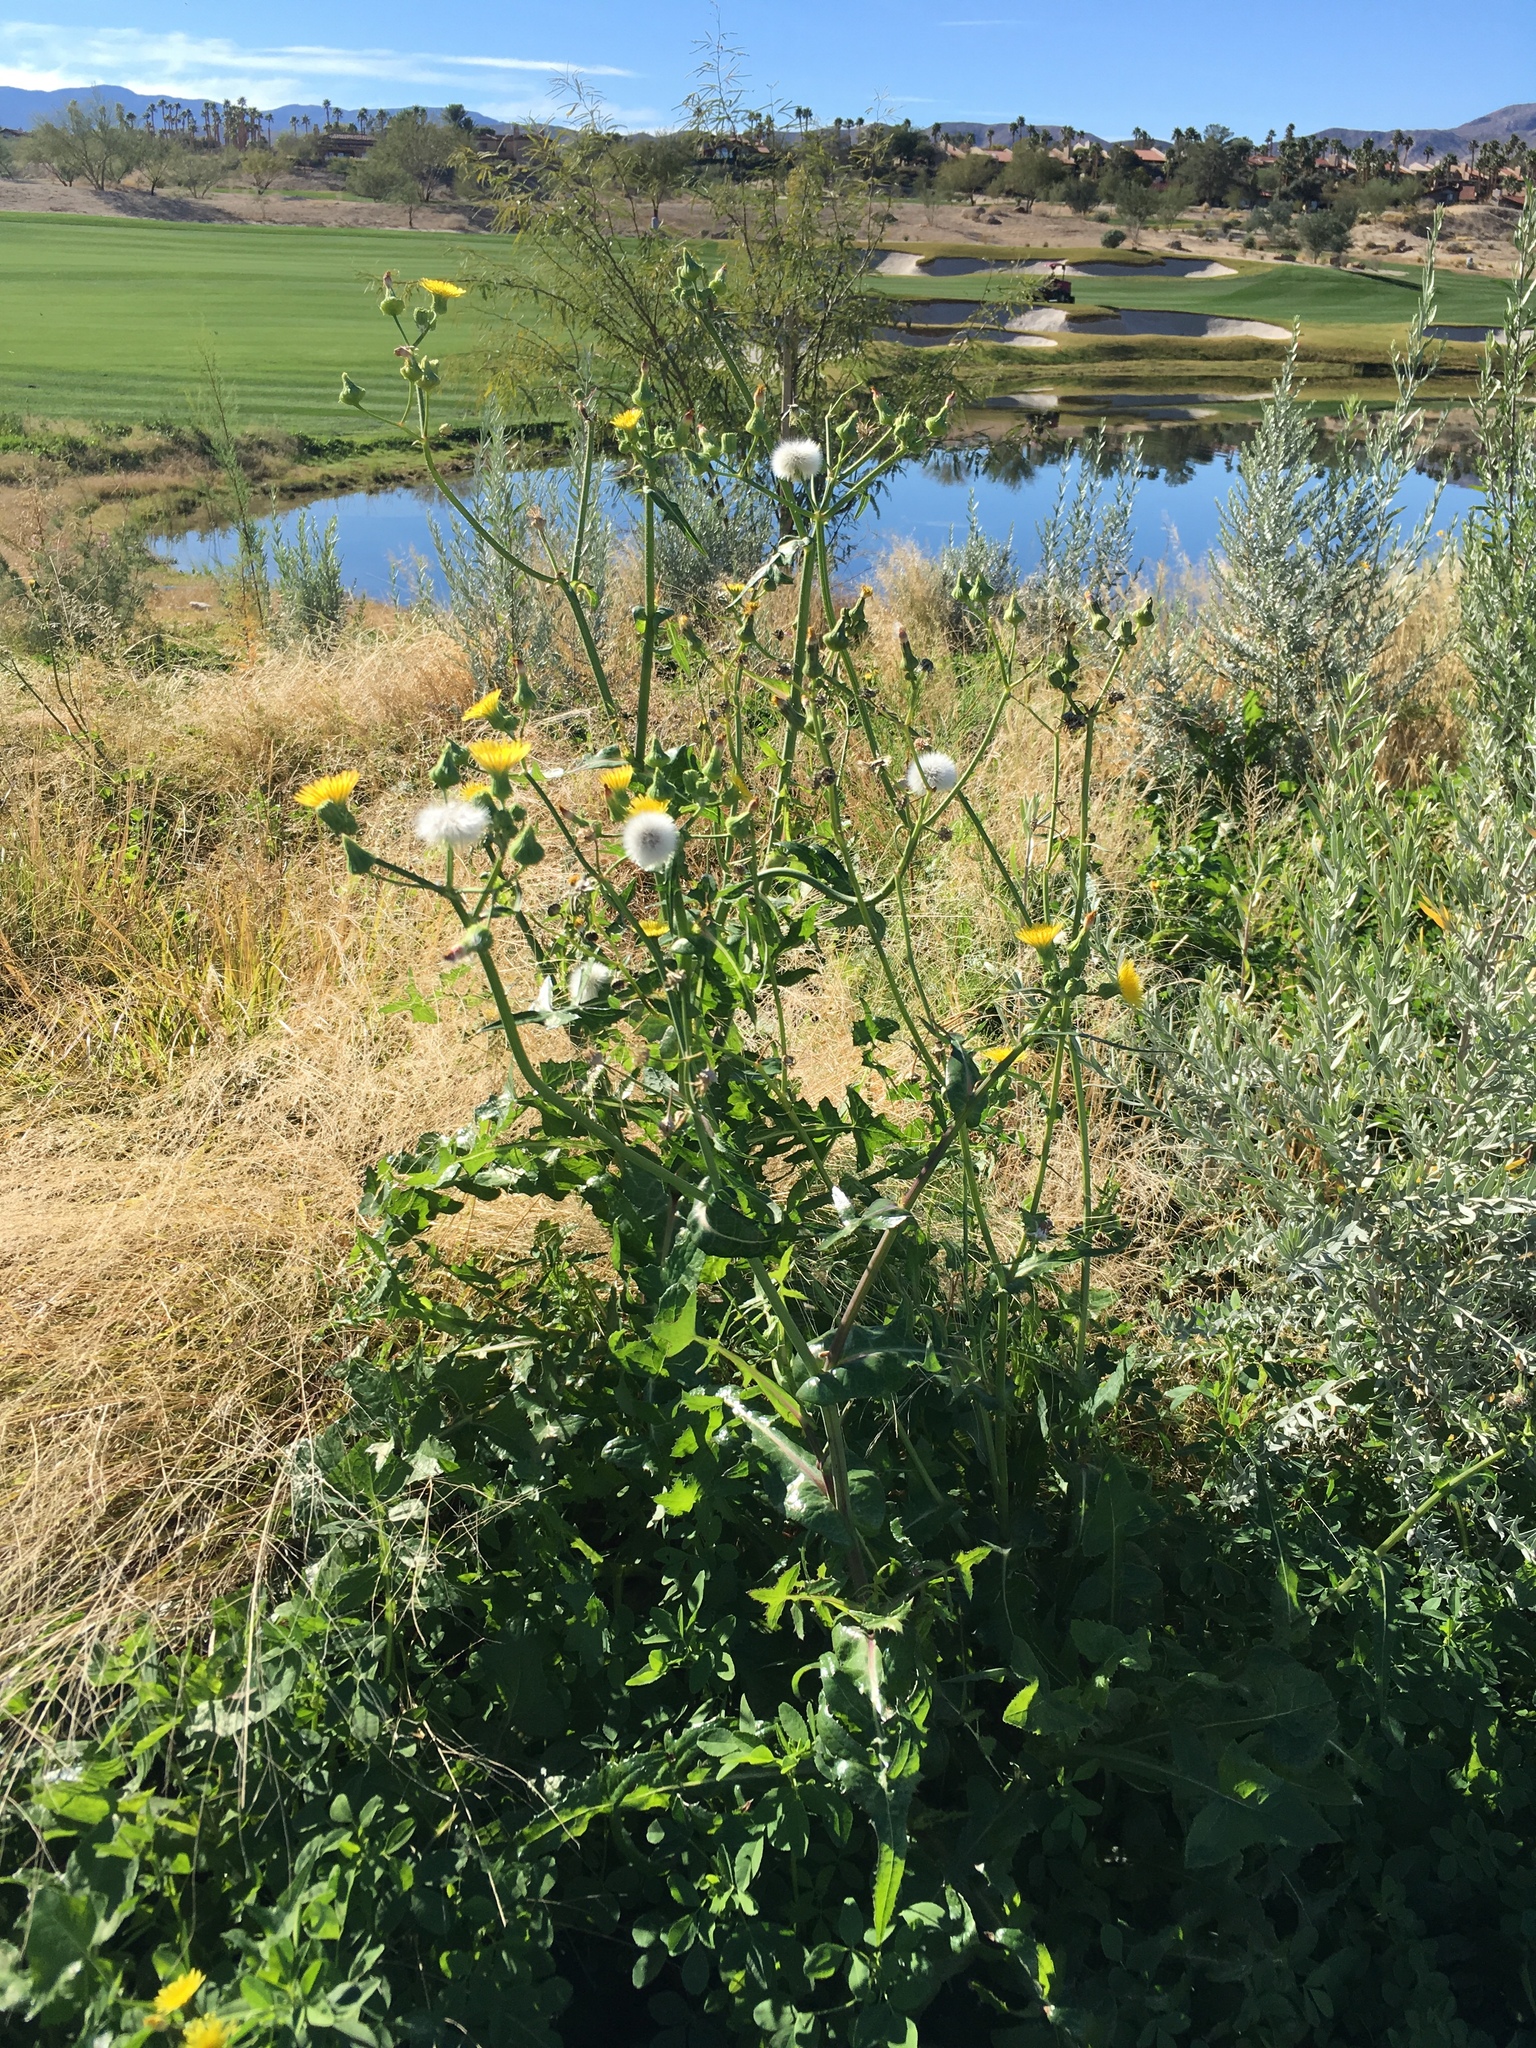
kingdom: Plantae
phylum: Tracheophyta
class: Magnoliopsida
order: Asterales
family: Asteraceae
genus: Sonchus
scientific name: Sonchus oleraceus
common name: Common sowthistle
